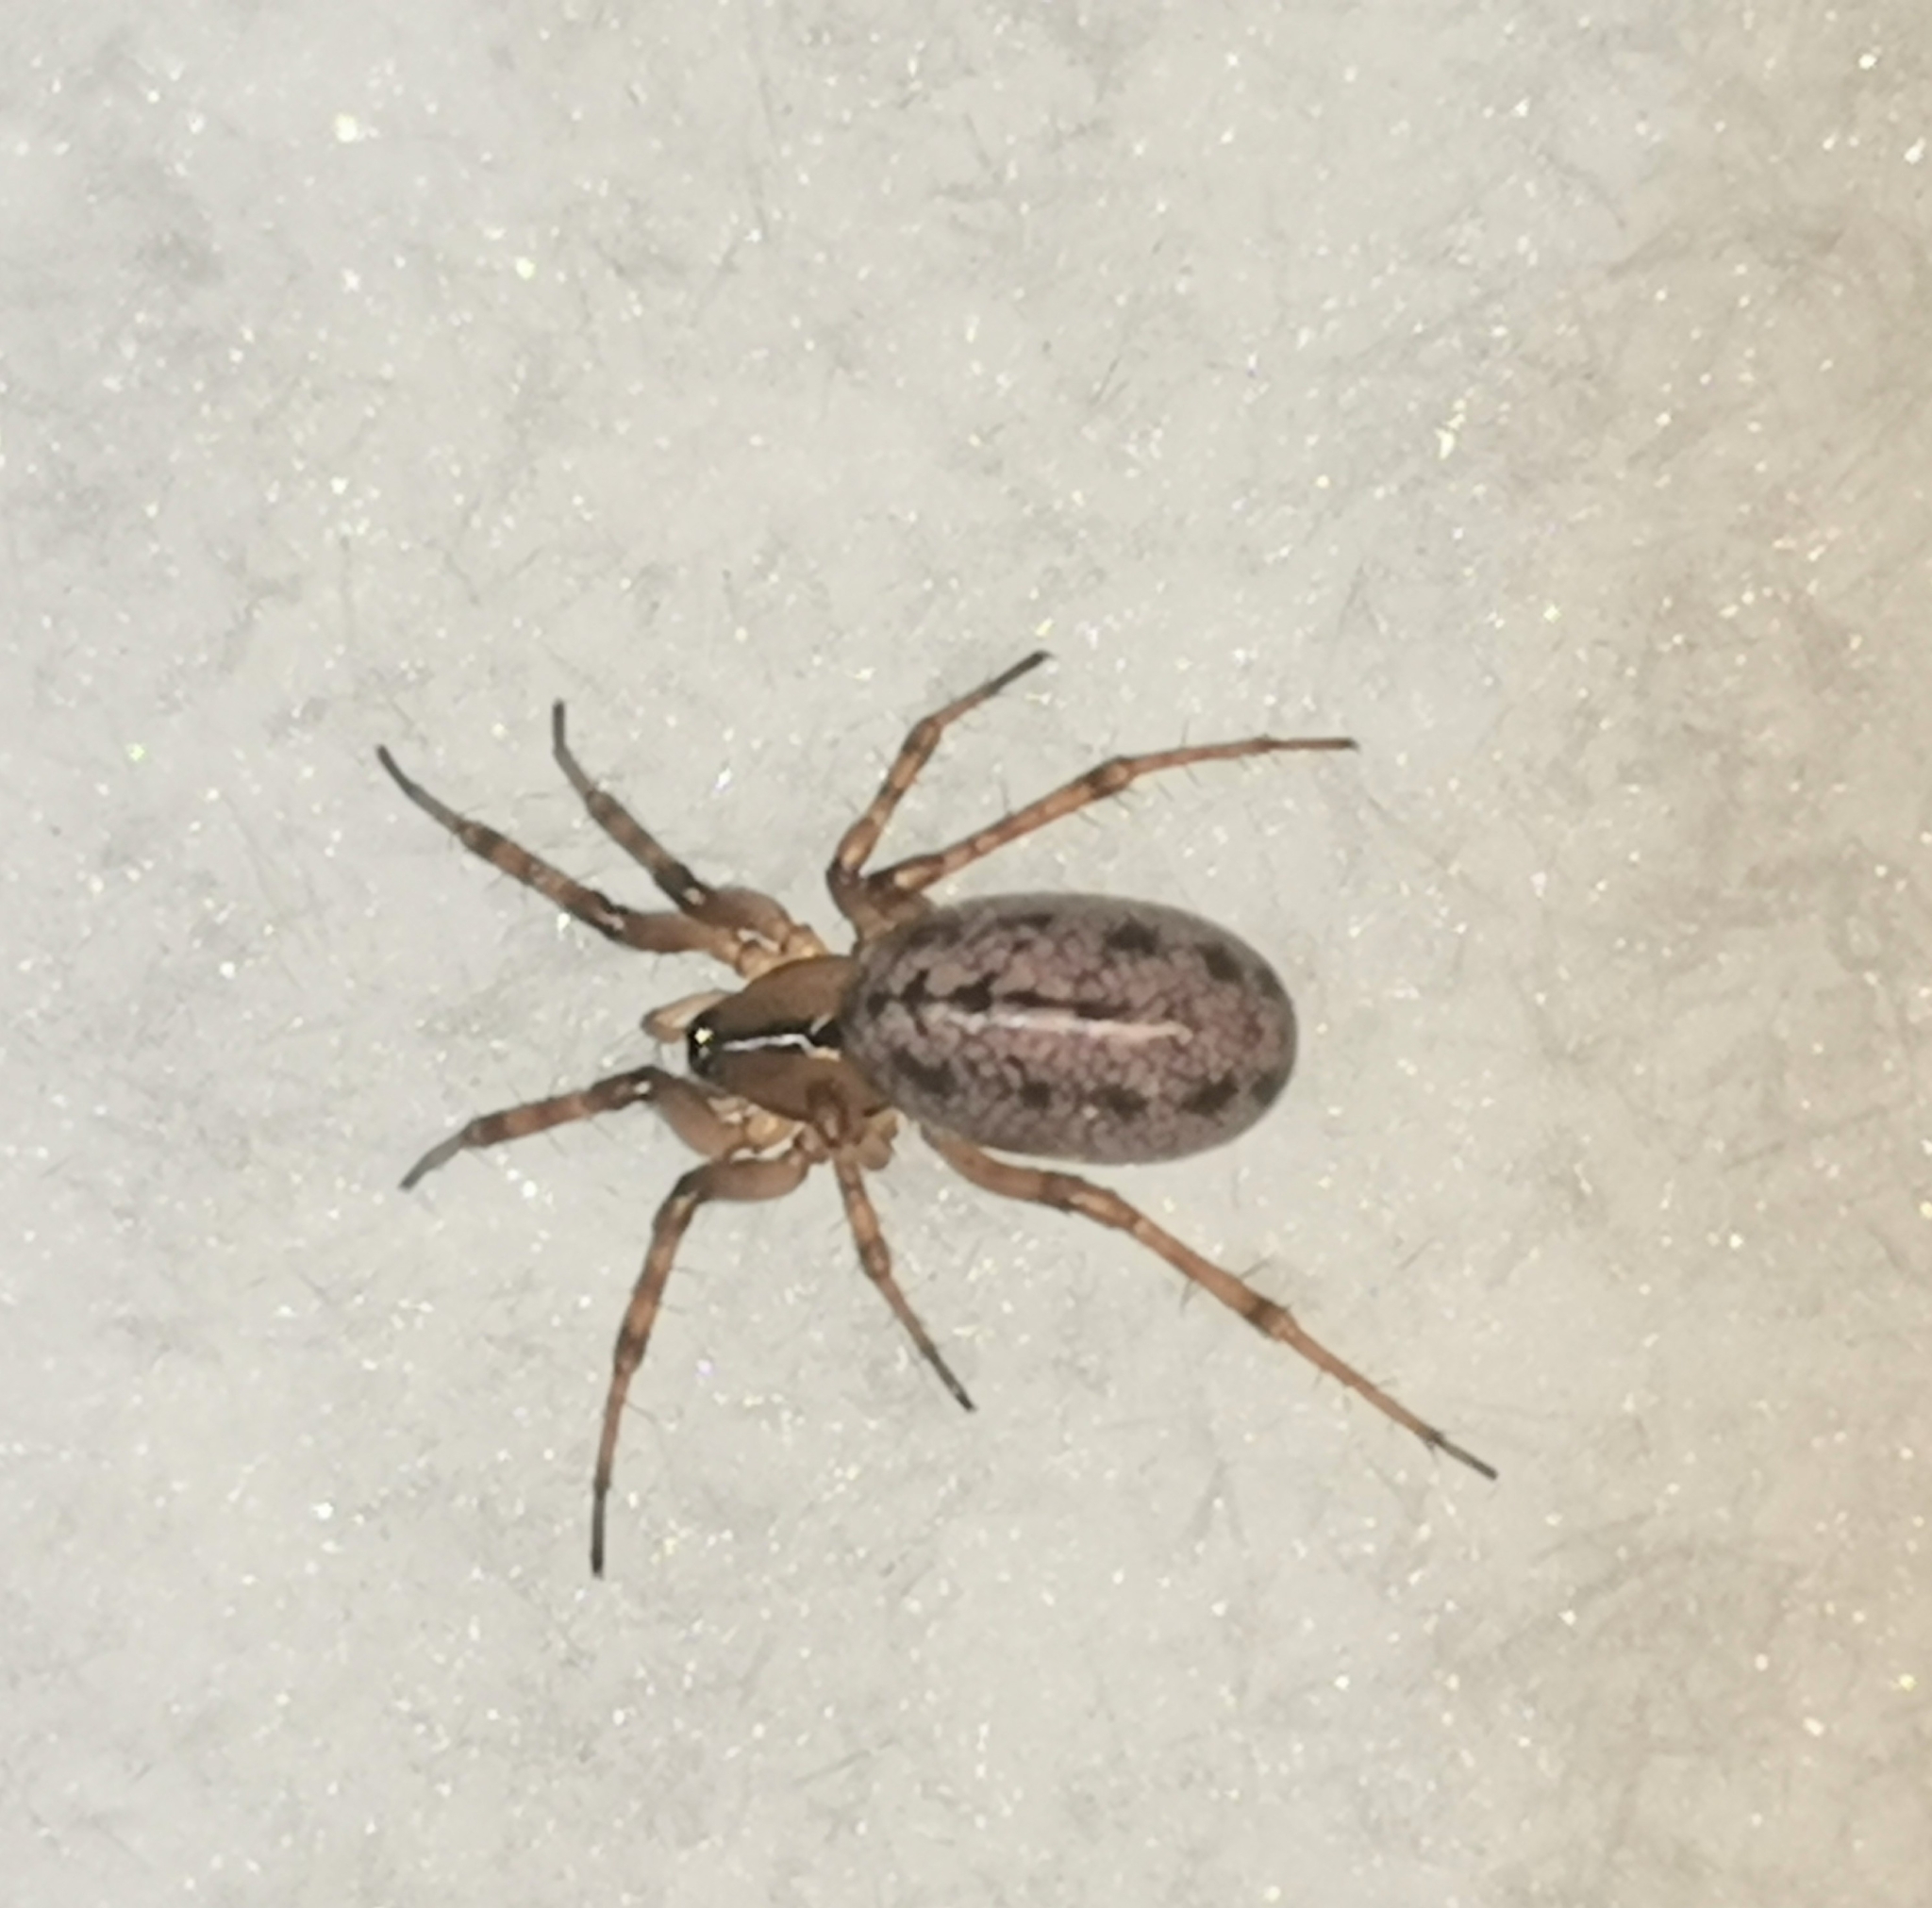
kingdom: Animalia
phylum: Arthropoda
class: Arachnida
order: Araneae
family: Linyphiidae
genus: Stemonyphantes
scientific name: Stemonyphantes lineatus
